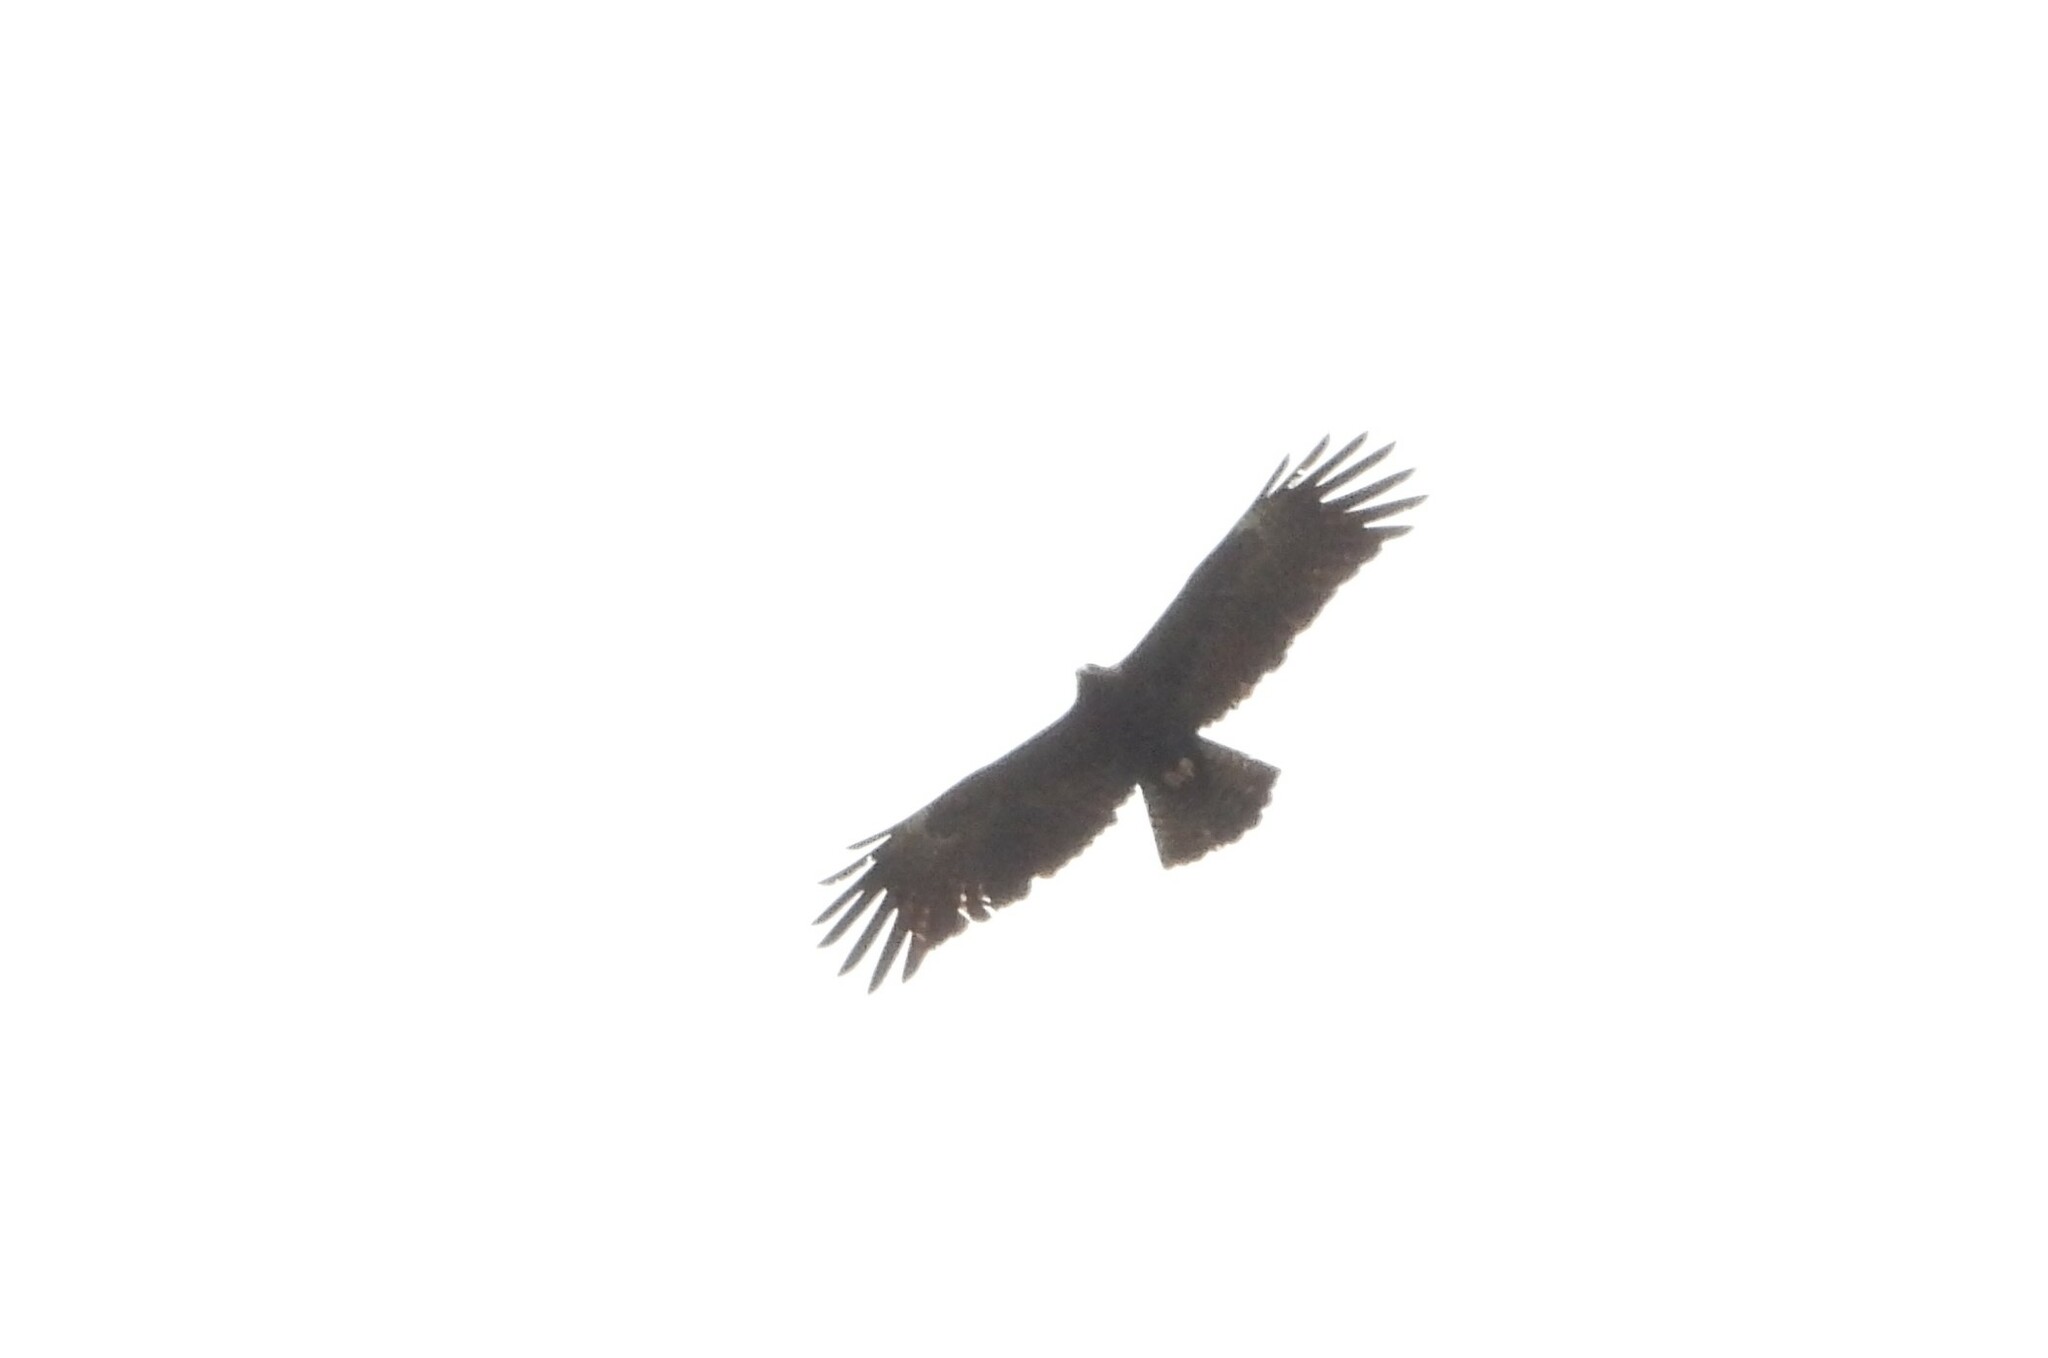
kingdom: Animalia
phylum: Chordata
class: Aves
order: Accipitriformes
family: Accipitridae
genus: Ictinaetus
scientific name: Ictinaetus malayensis
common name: Black eagle
